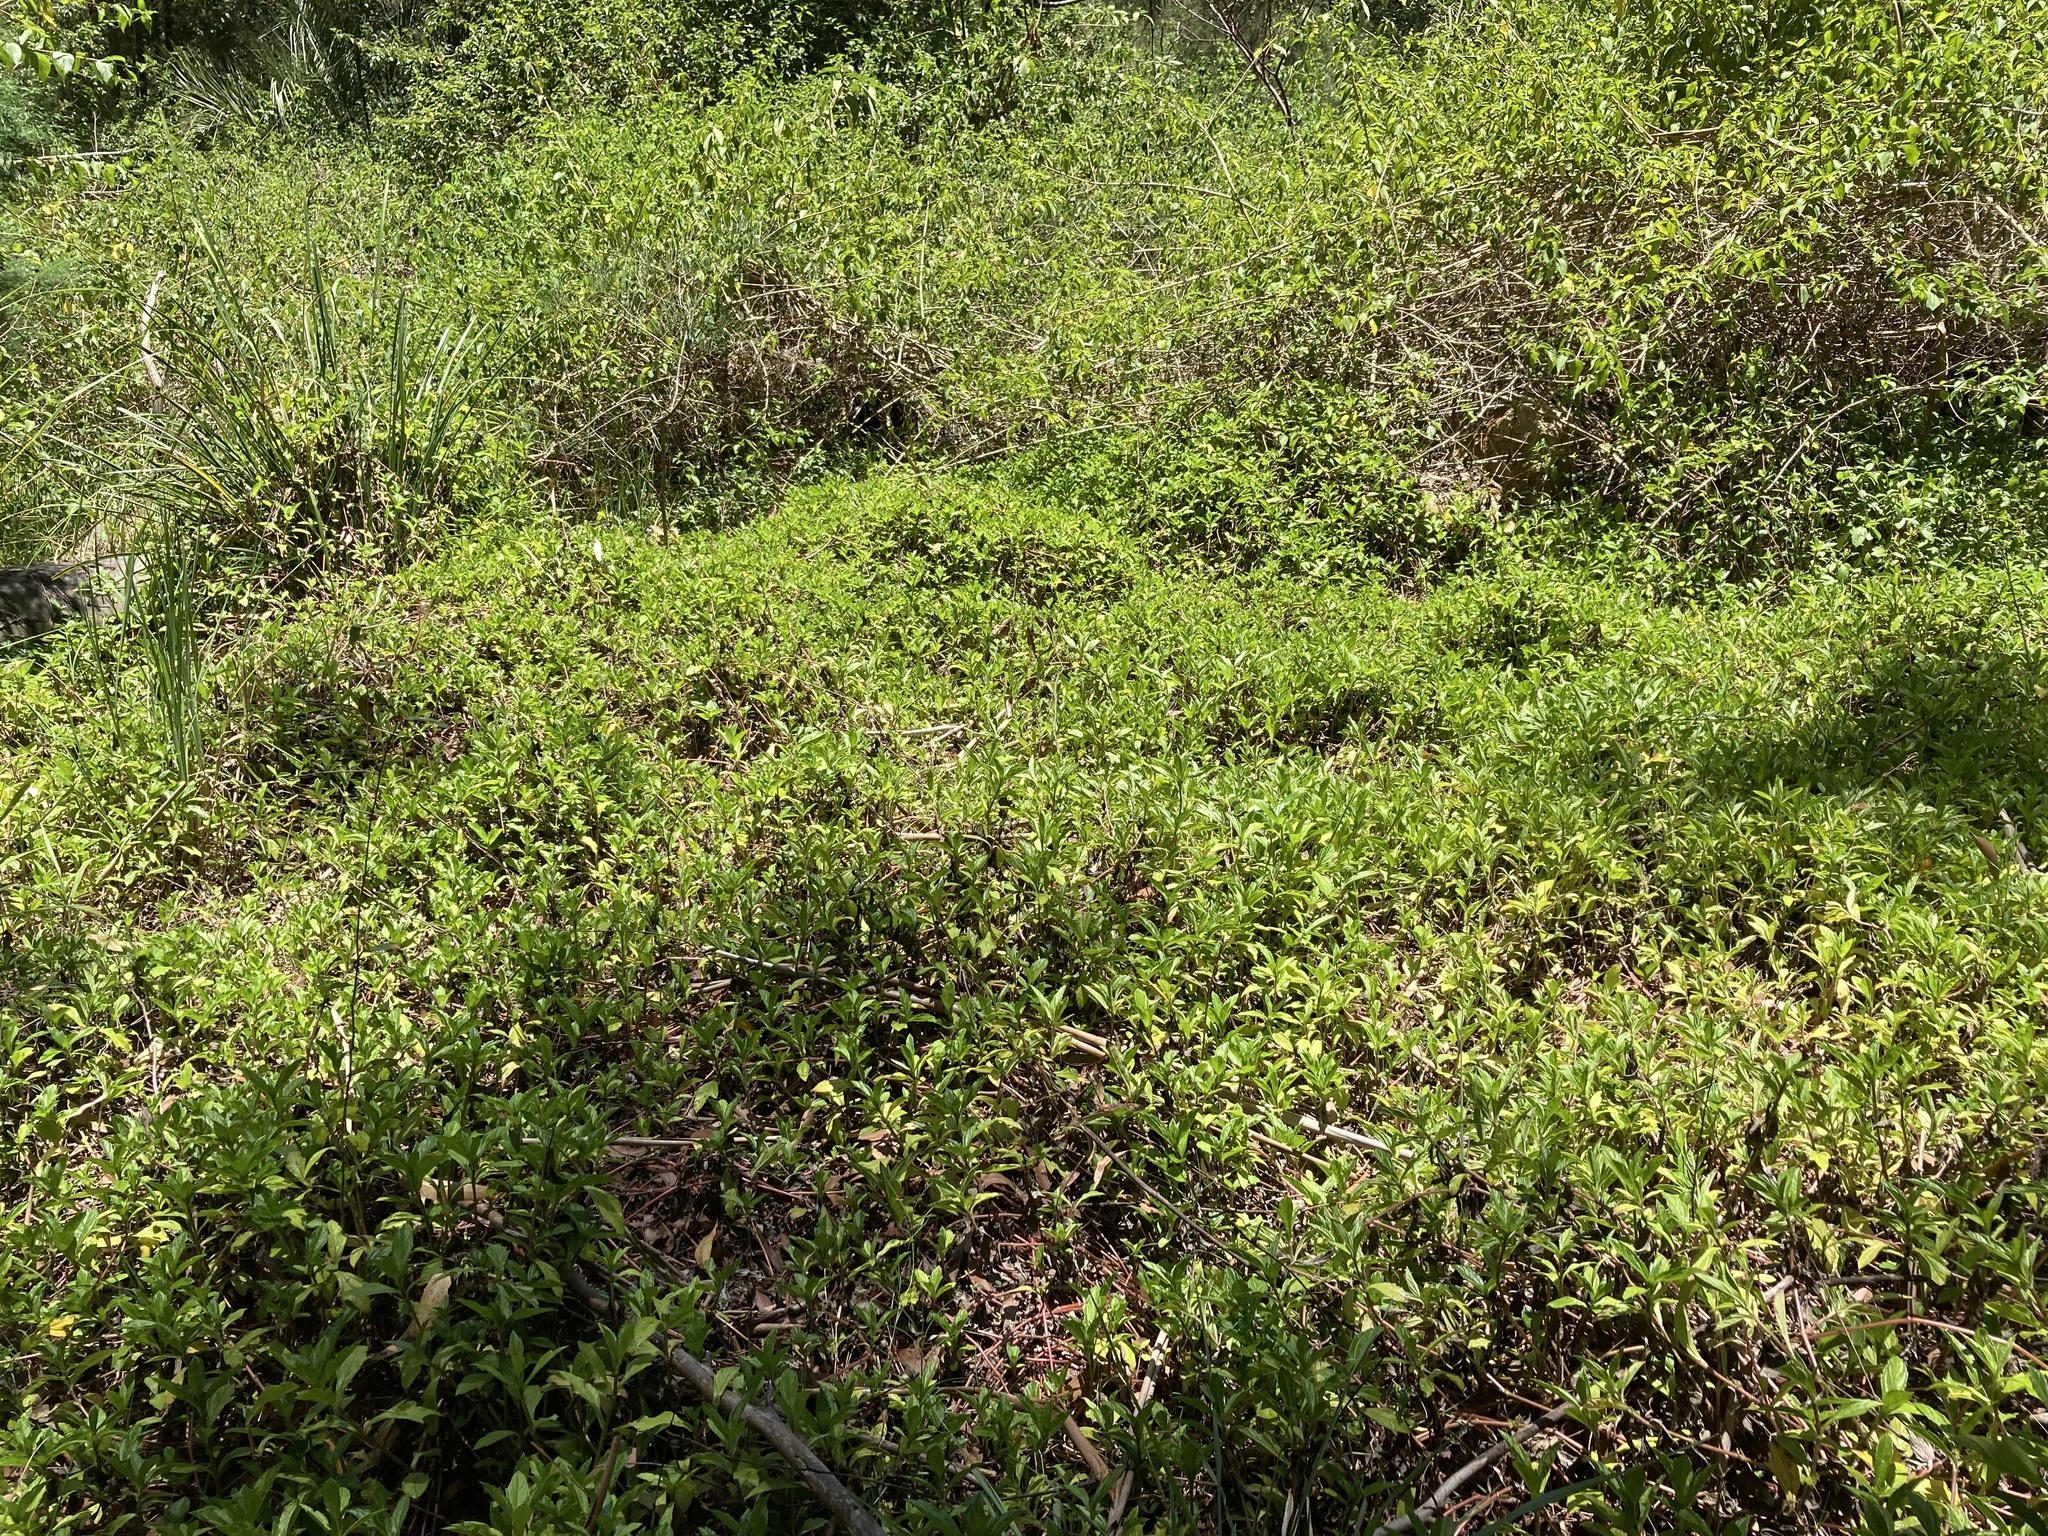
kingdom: Plantae
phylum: Tracheophyta
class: Magnoliopsida
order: Asterales
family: Asteraceae
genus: Sphagneticola
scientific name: Sphagneticola trilobata
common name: Bay biscayne creeping-oxeye
